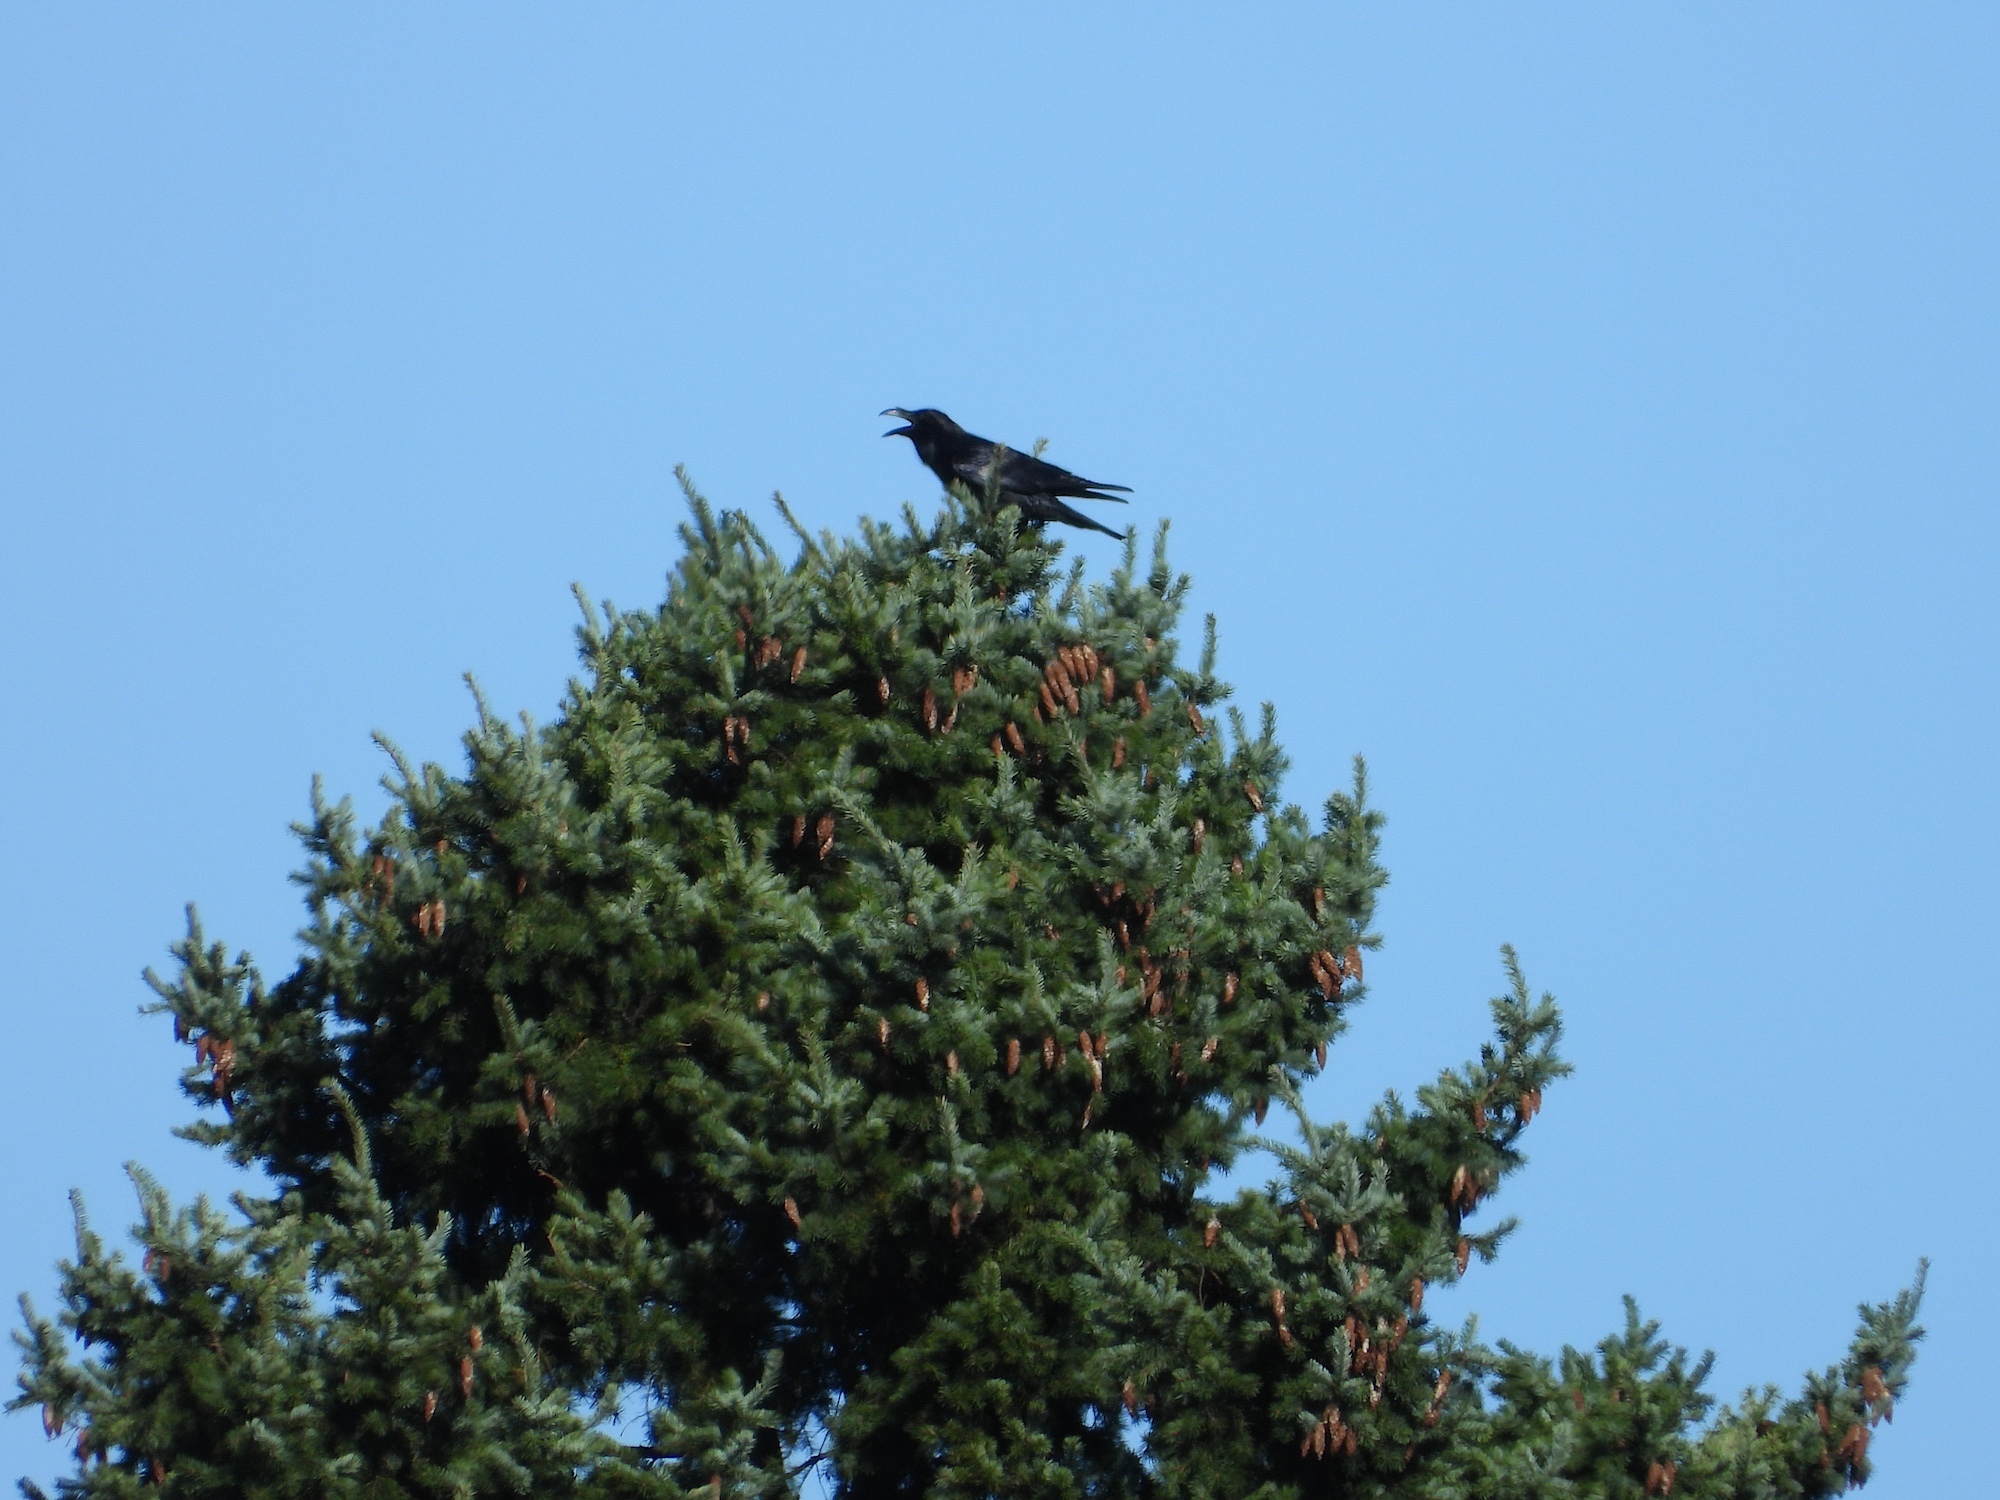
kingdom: Animalia
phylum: Chordata
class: Aves
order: Passeriformes
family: Corvidae
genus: Corvus
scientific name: Corvus corax
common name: Common raven
